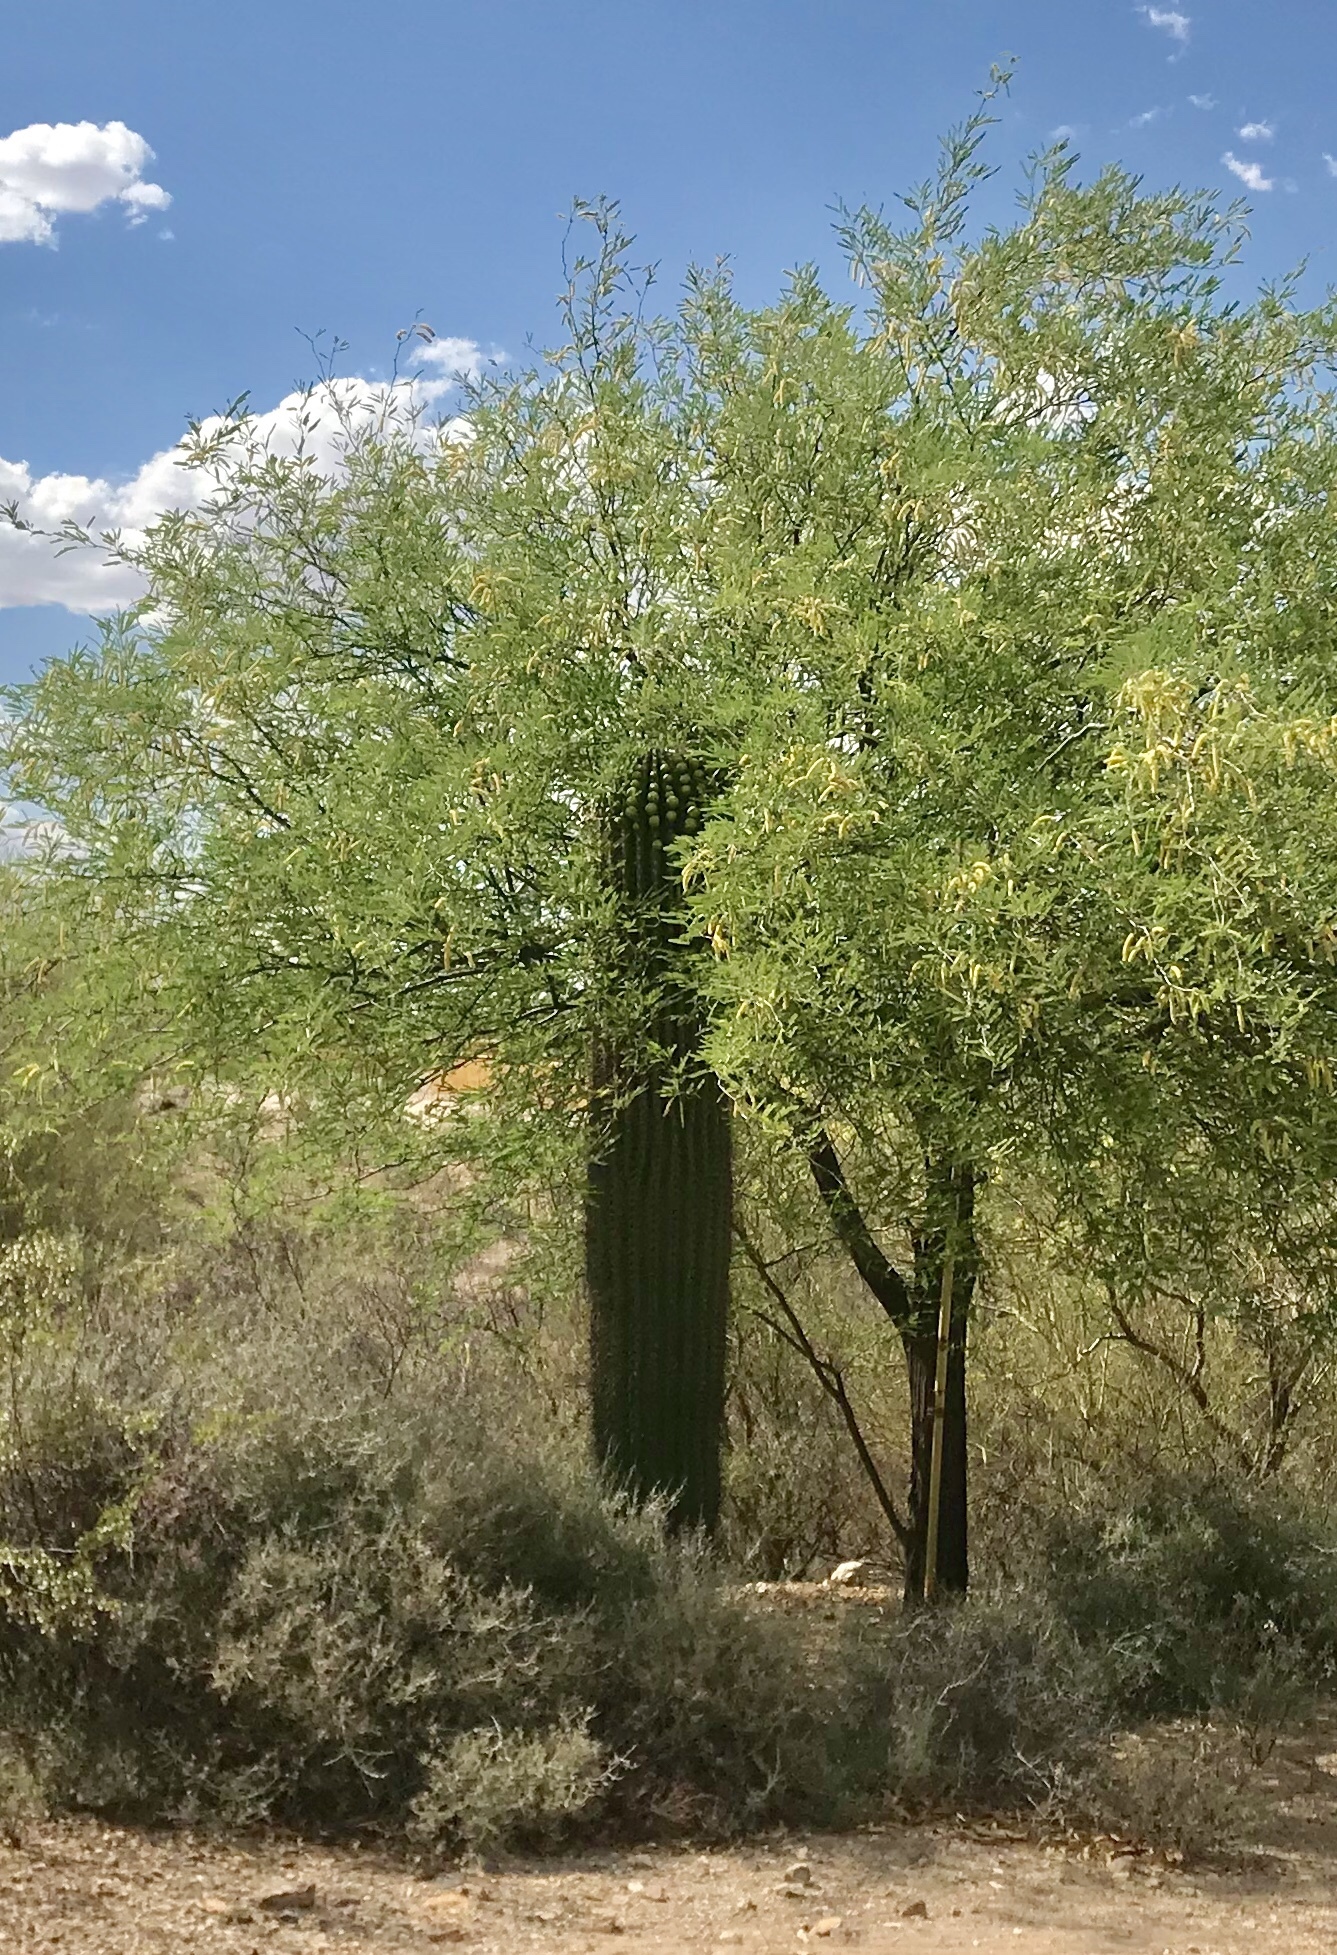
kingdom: Plantae
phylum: Tracheophyta
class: Magnoliopsida
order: Caryophyllales
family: Cactaceae
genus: Carnegiea
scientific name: Carnegiea gigantea
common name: Saguaro
